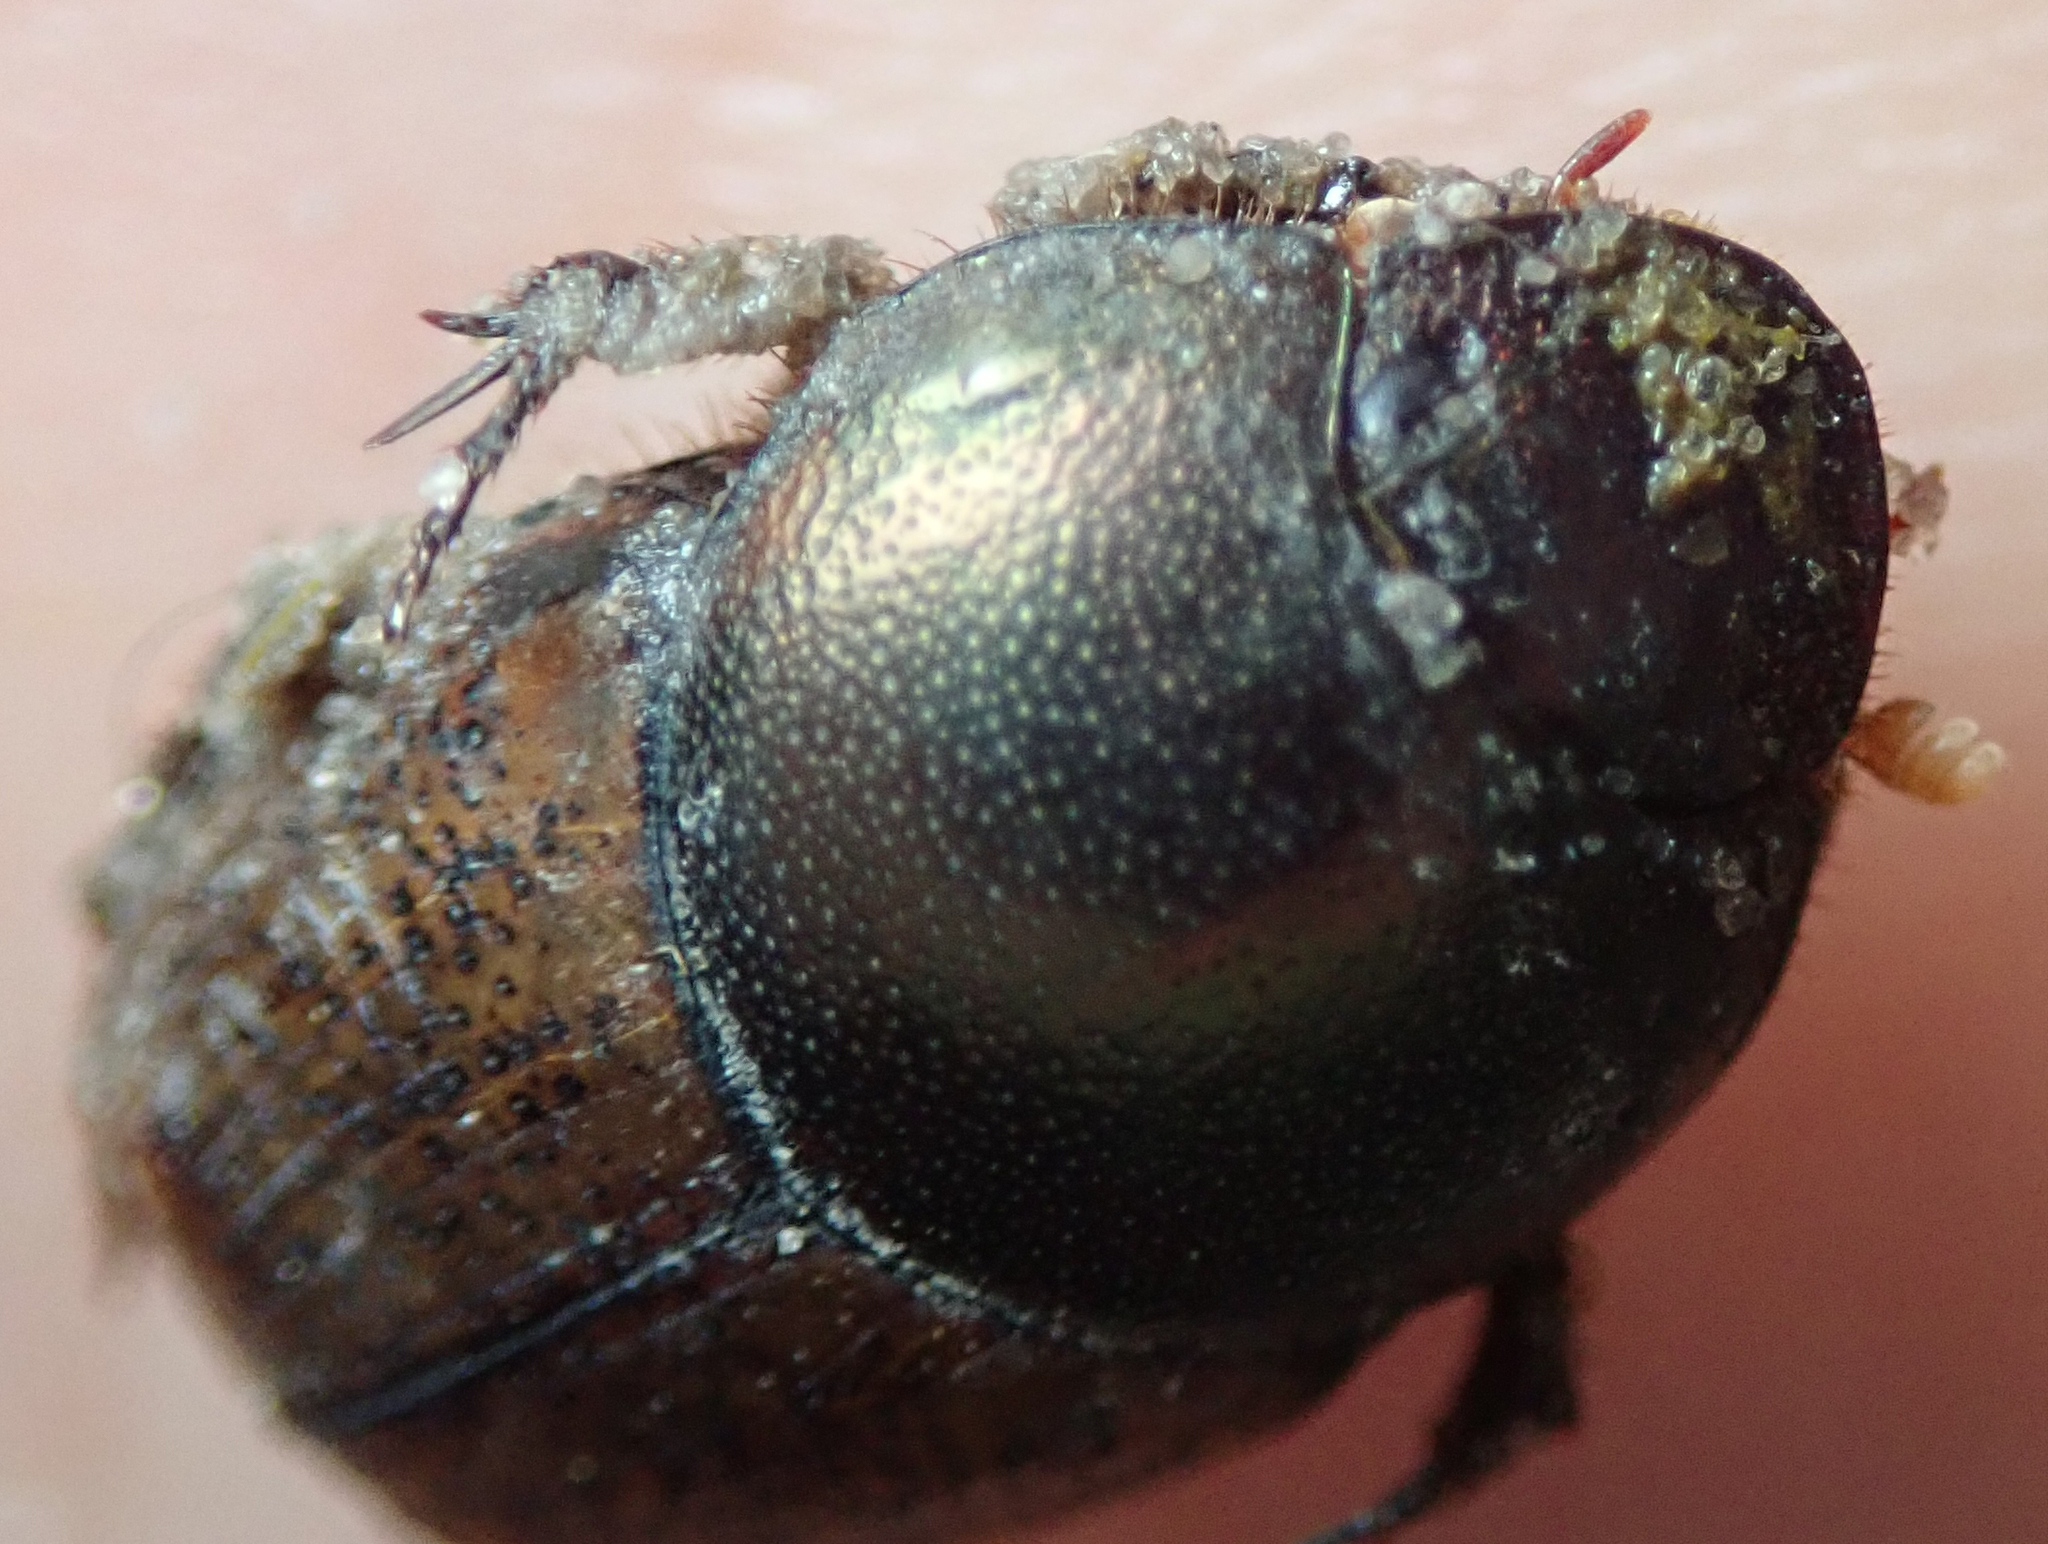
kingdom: Animalia
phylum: Arthropoda
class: Insecta
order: Coleoptera
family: Scarabaeidae
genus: Onthophagus
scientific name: Onthophagus plebejus
